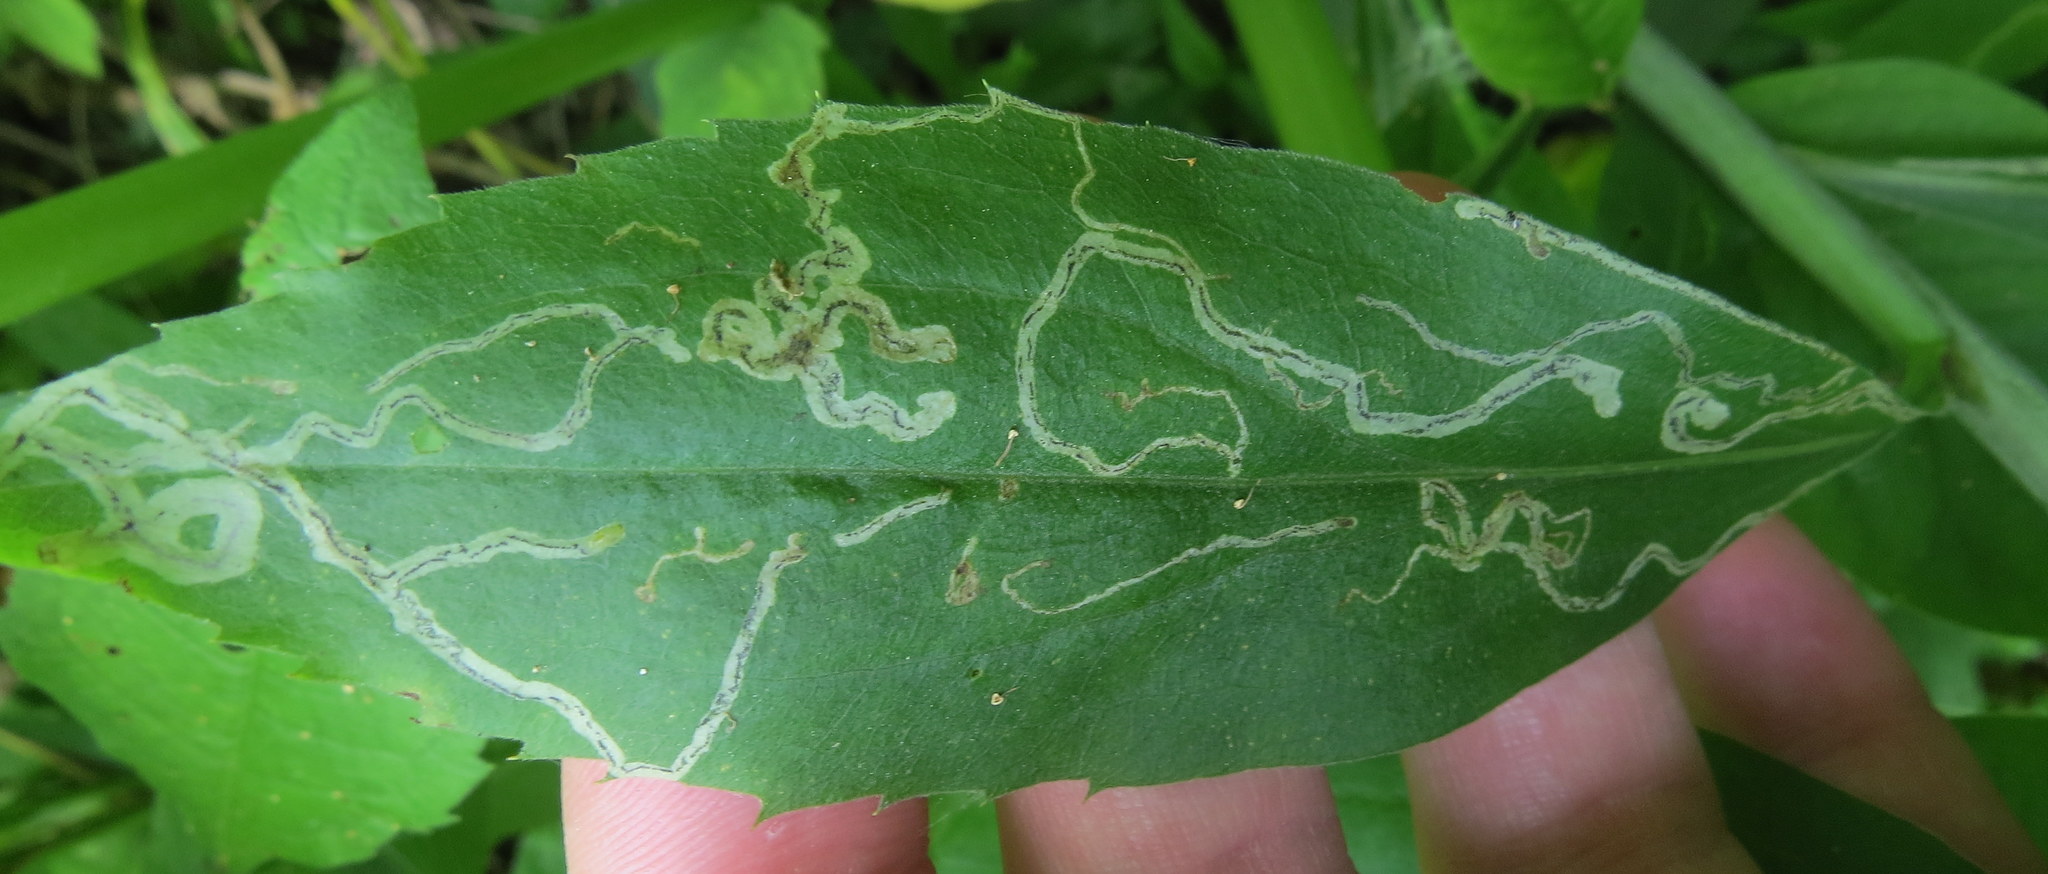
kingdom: Animalia
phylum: Arthropoda
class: Insecta
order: Diptera
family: Agromyzidae
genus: Liriomyza
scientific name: Liriomyza eupatorii
